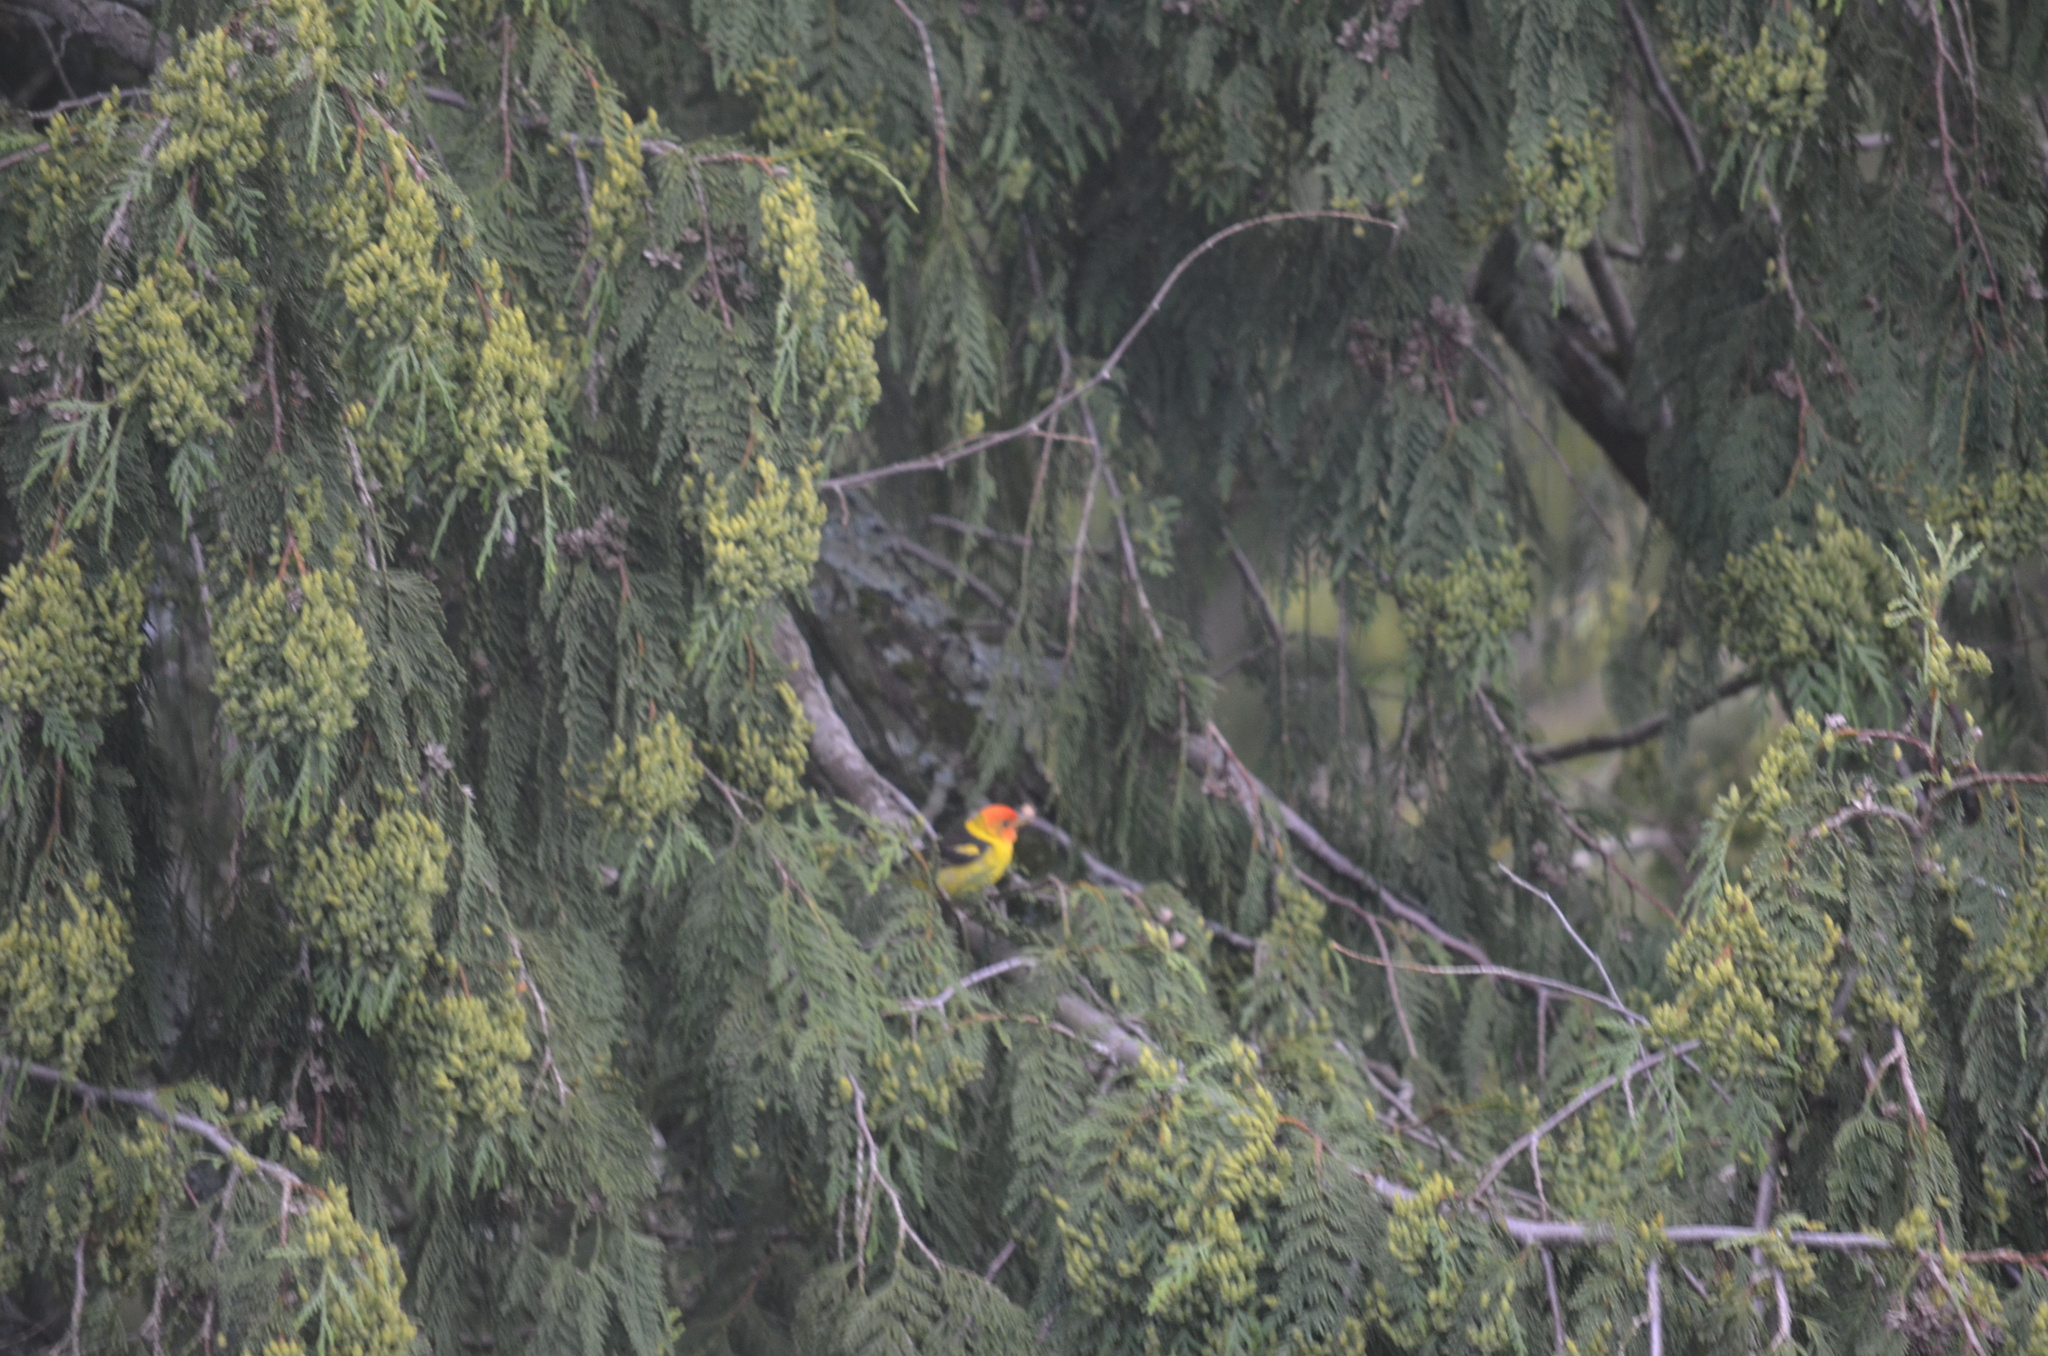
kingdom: Animalia
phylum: Chordata
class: Aves
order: Passeriformes
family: Cardinalidae
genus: Piranga
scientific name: Piranga ludoviciana
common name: Western tanager
